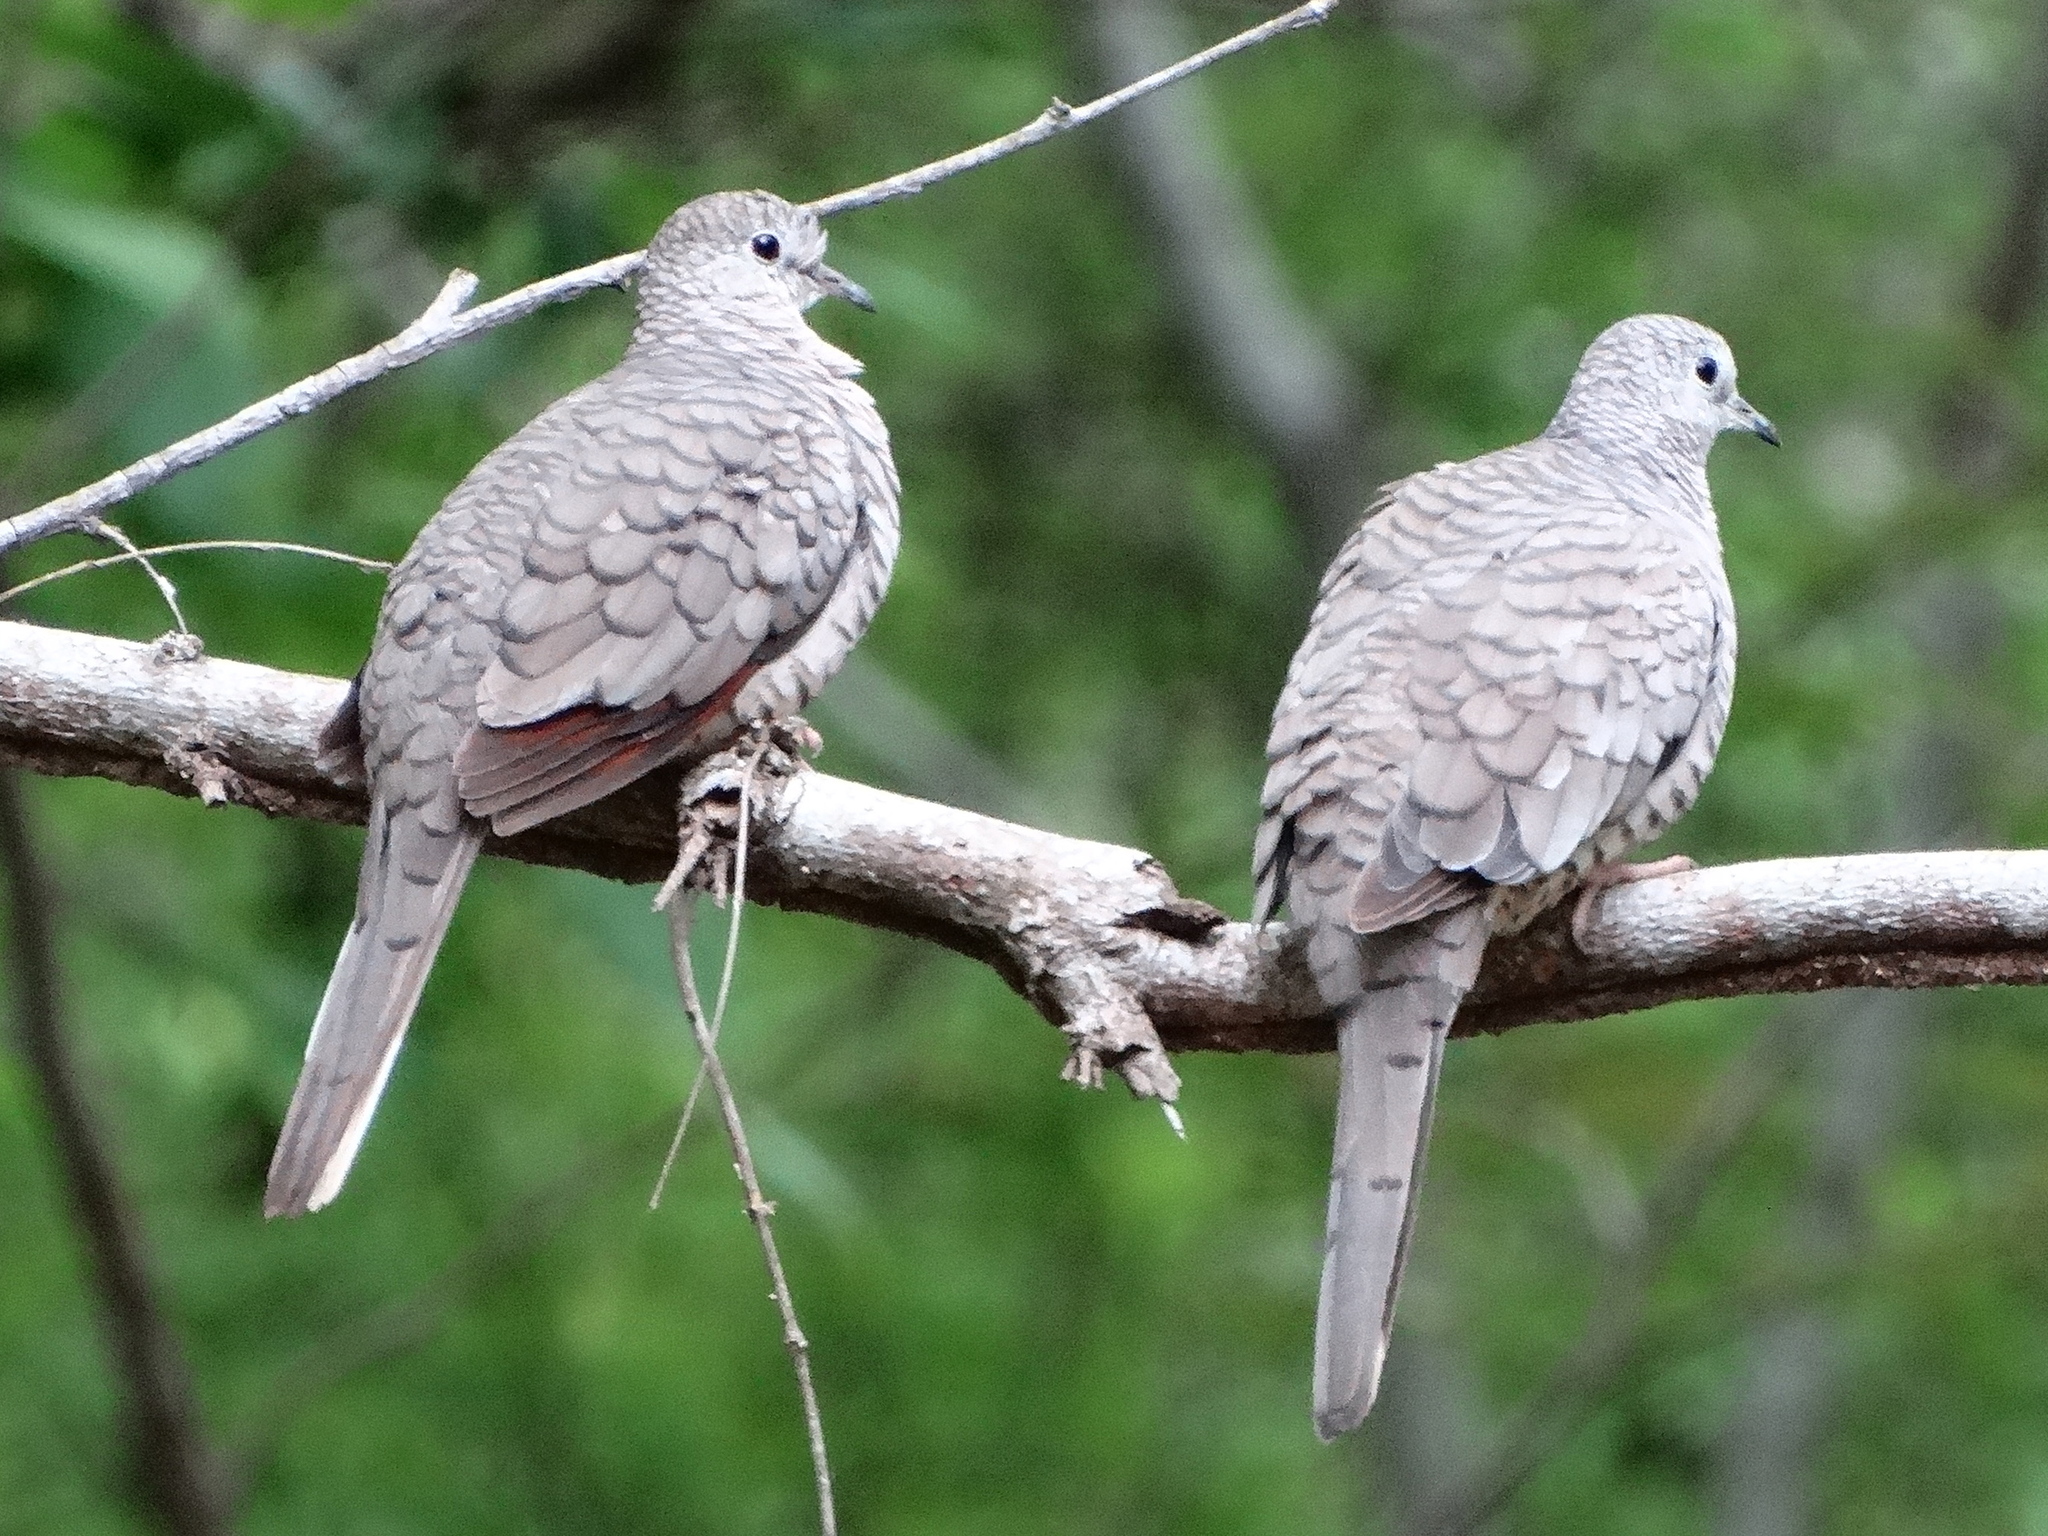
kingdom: Animalia
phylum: Chordata
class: Aves
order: Columbiformes
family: Columbidae
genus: Columbina
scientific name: Columbina inca
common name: Inca dove
